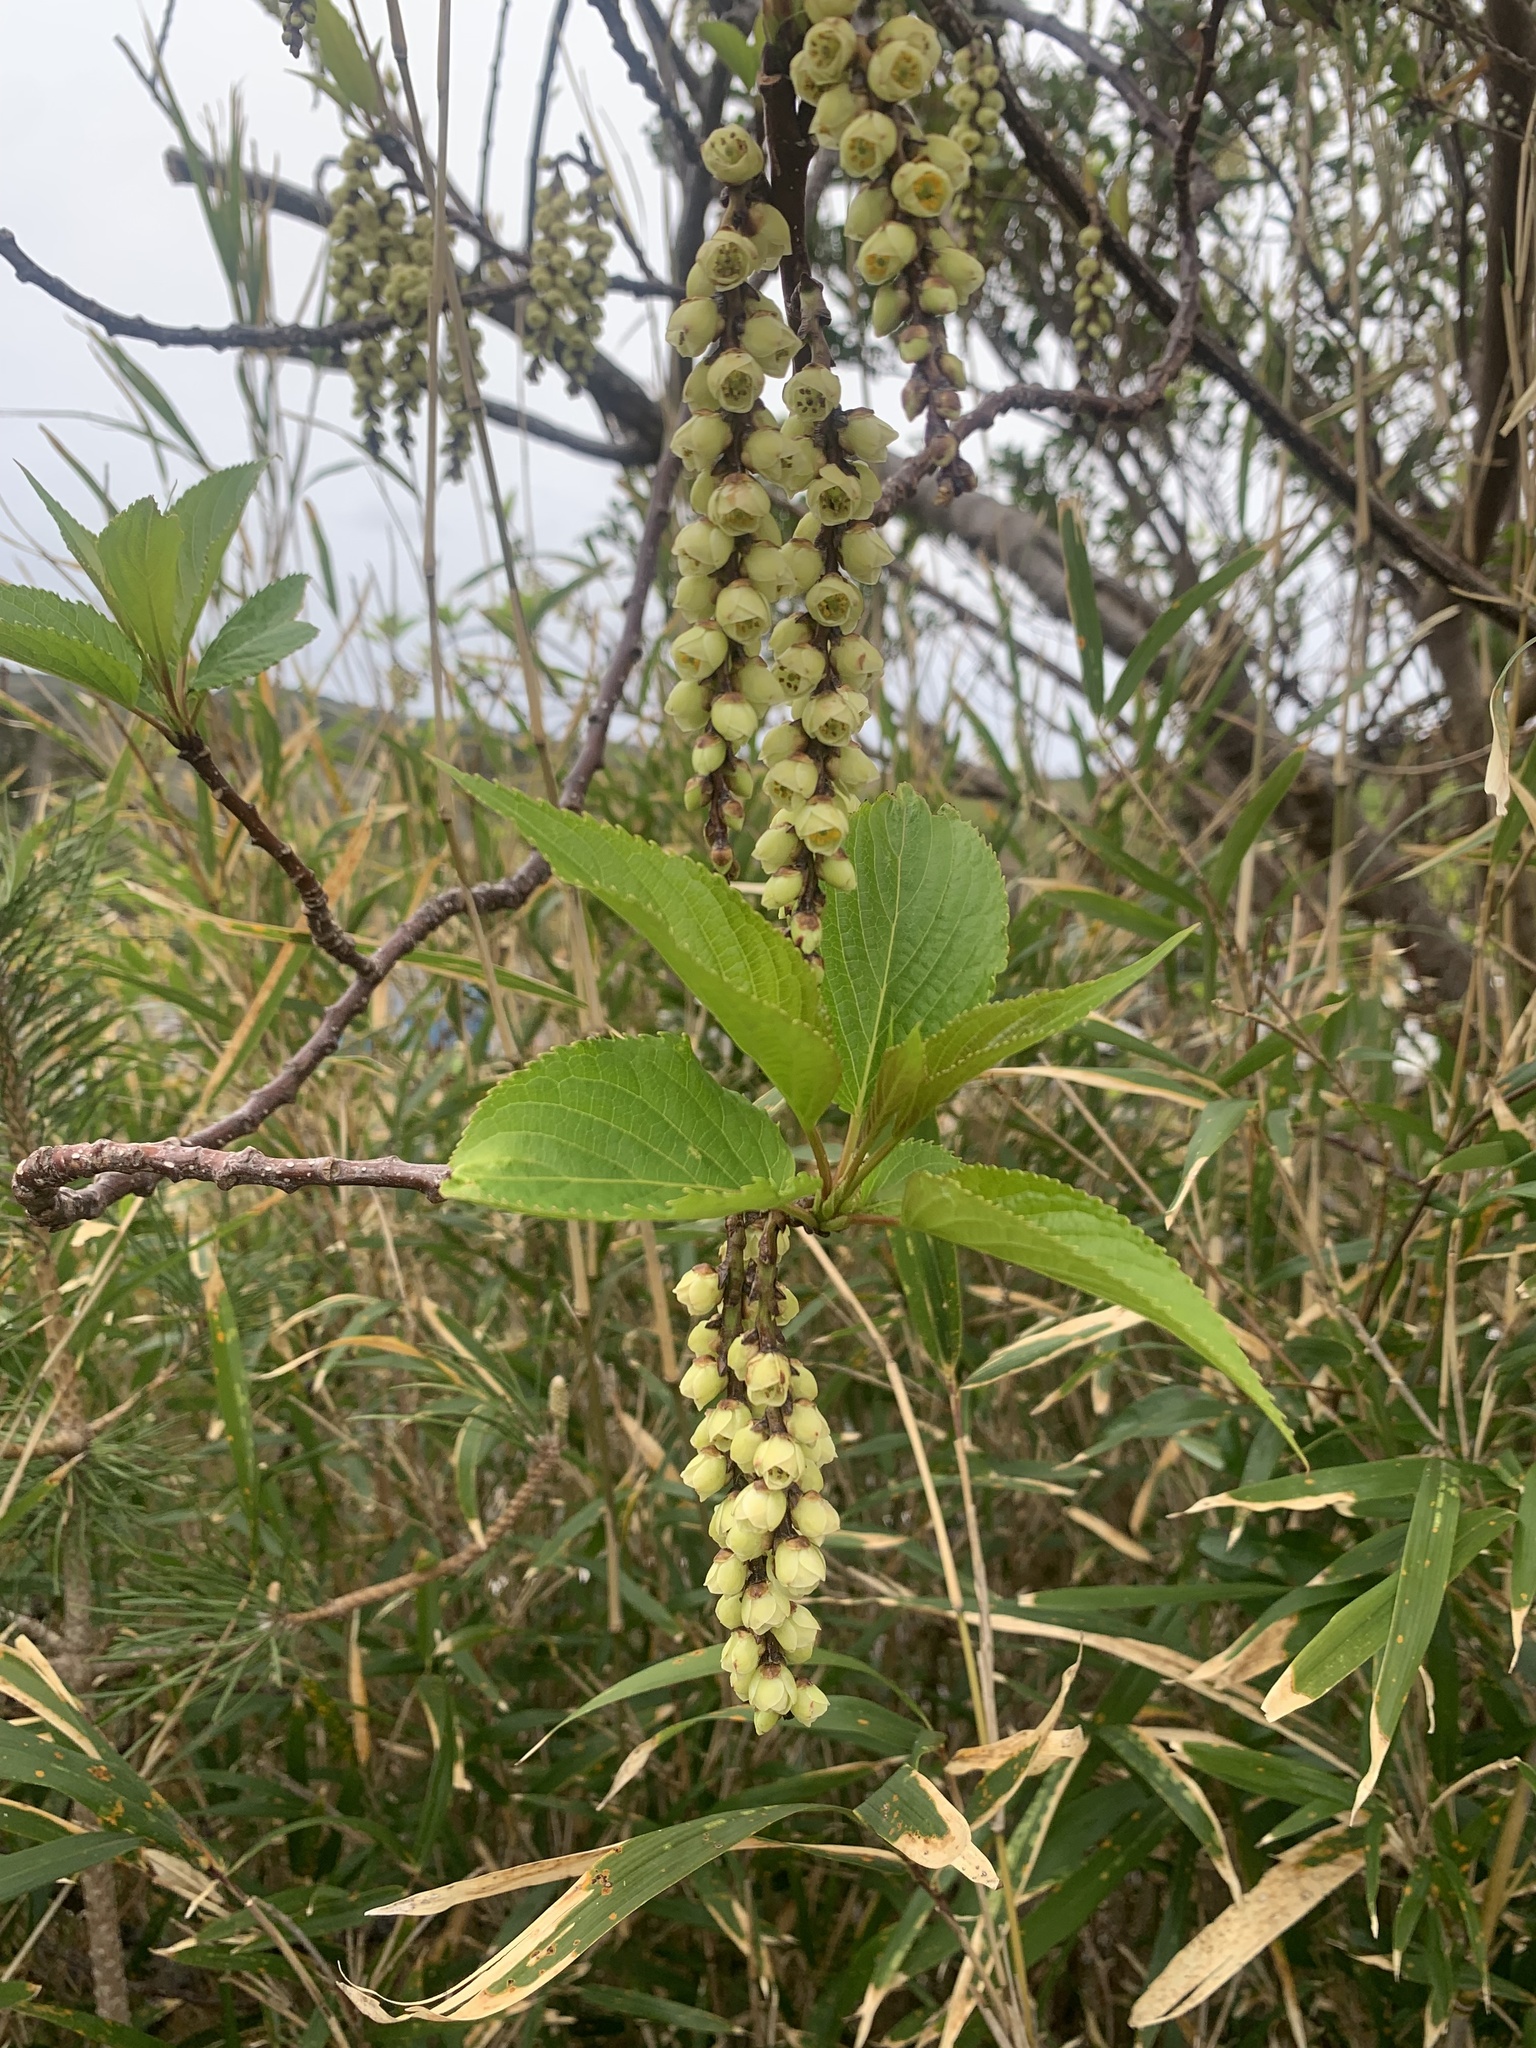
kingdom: Plantae
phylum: Tracheophyta
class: Magnoliopsida
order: Crossosomatales
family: Stachyuraceae
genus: Stachyurus
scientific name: Stachyurus praecox
